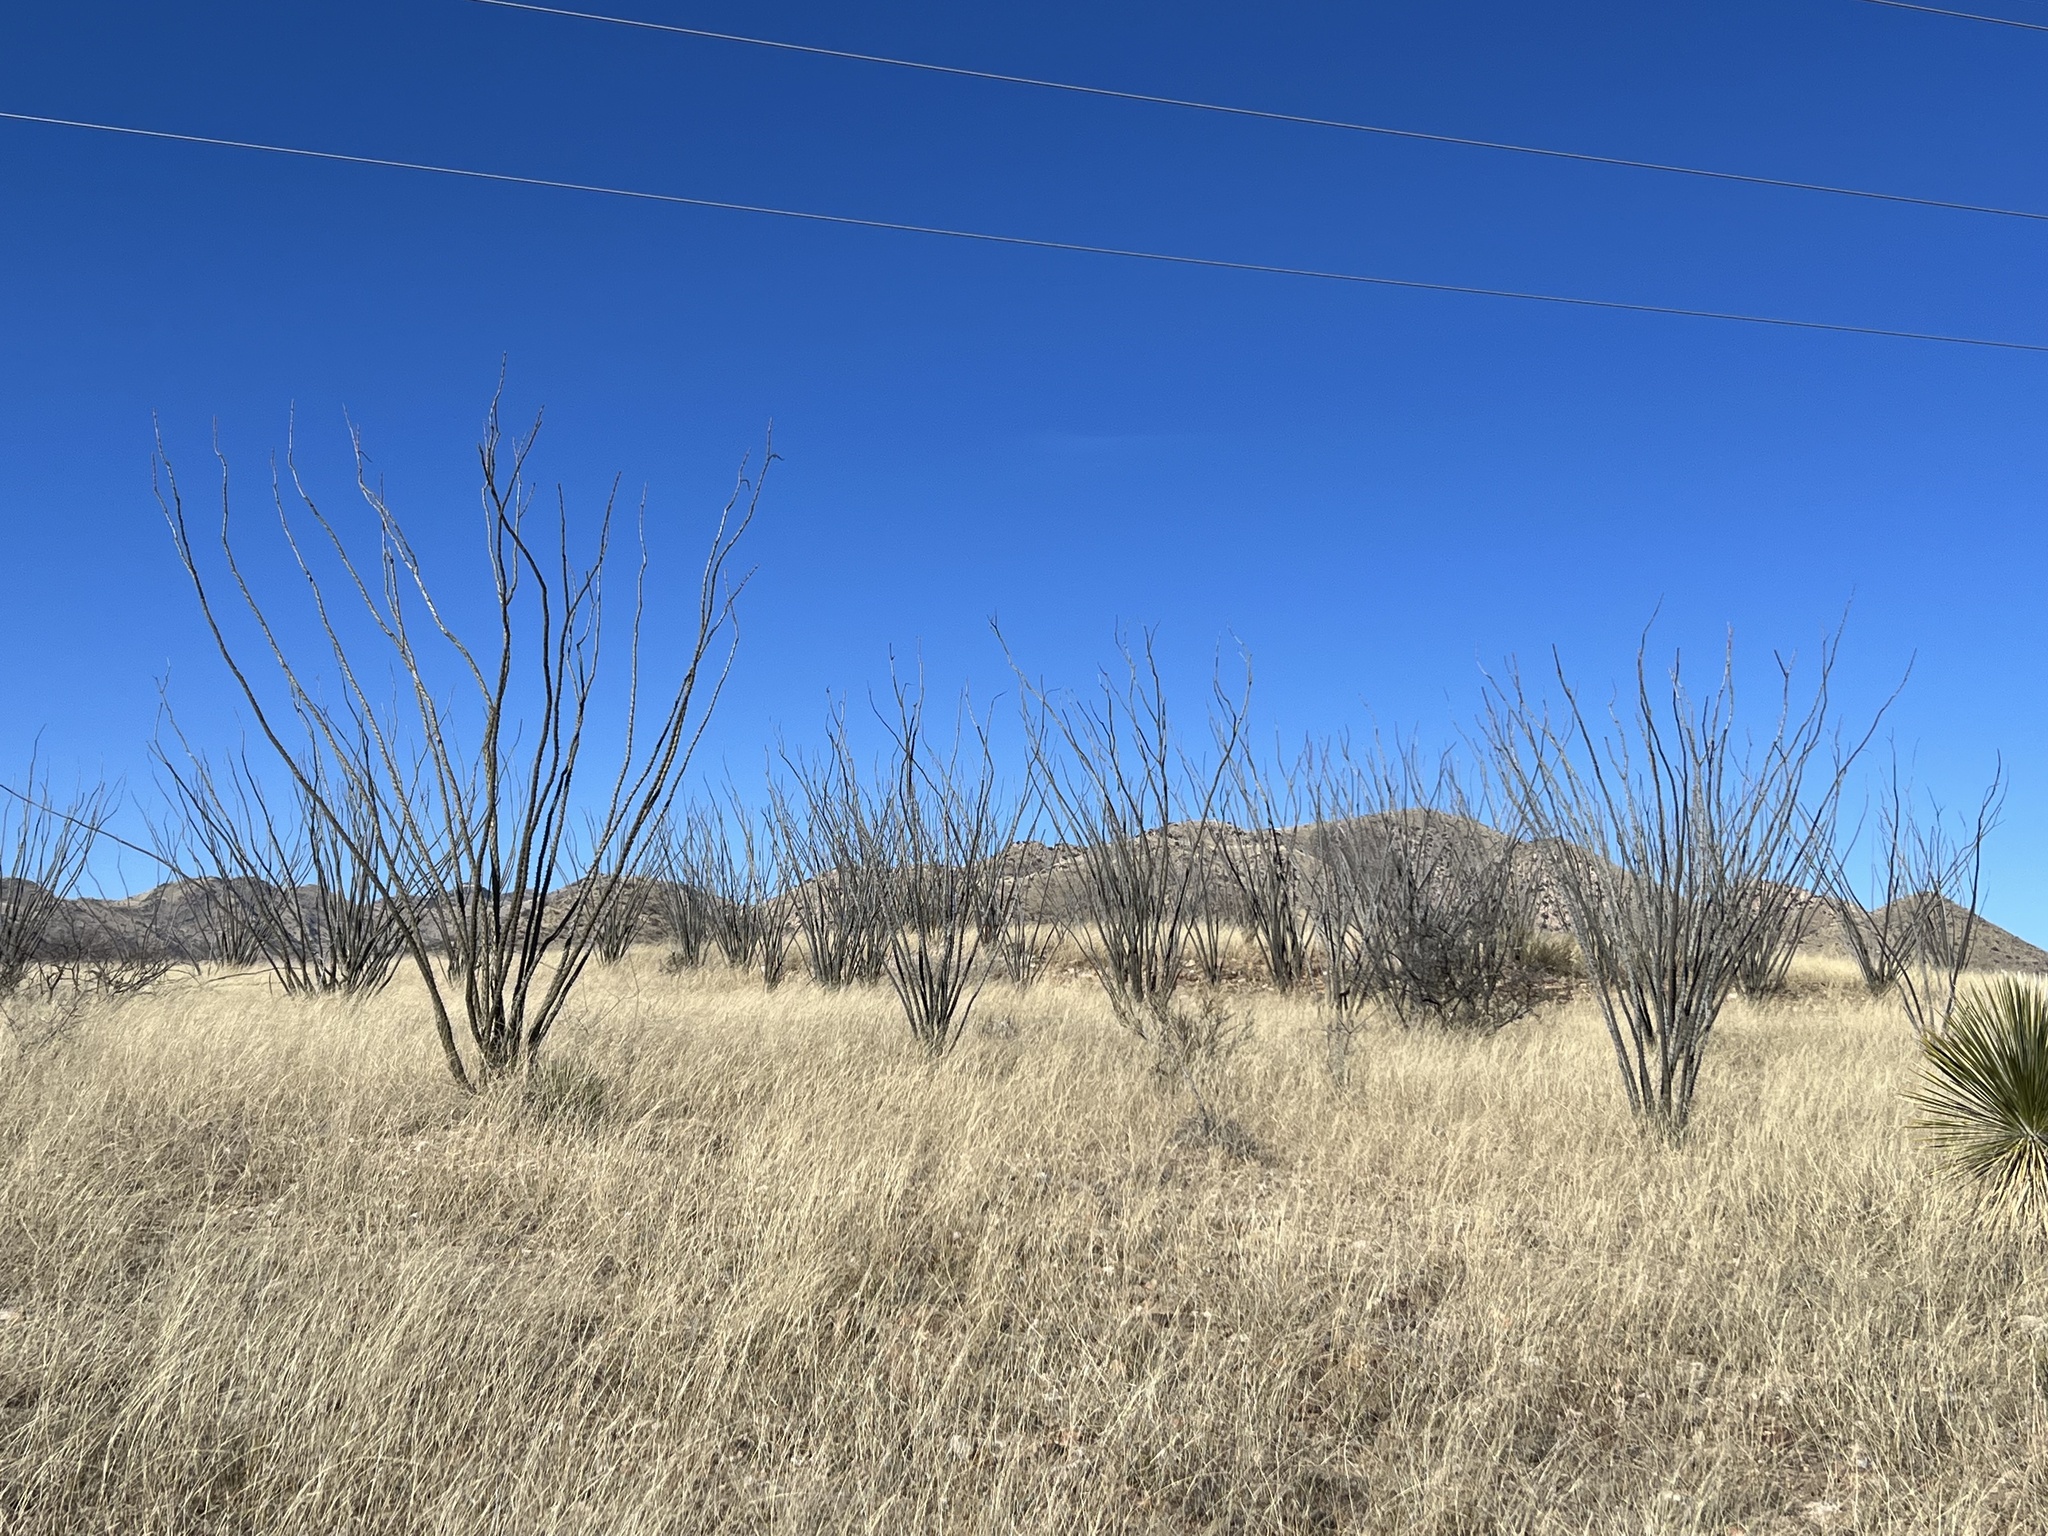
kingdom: Plantae
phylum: Tracheophyta
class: Magnoliopsida
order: Ericales
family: Fouquieriaceae
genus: Fouquieria
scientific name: Fouquieria splendens
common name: Vine-cactus
